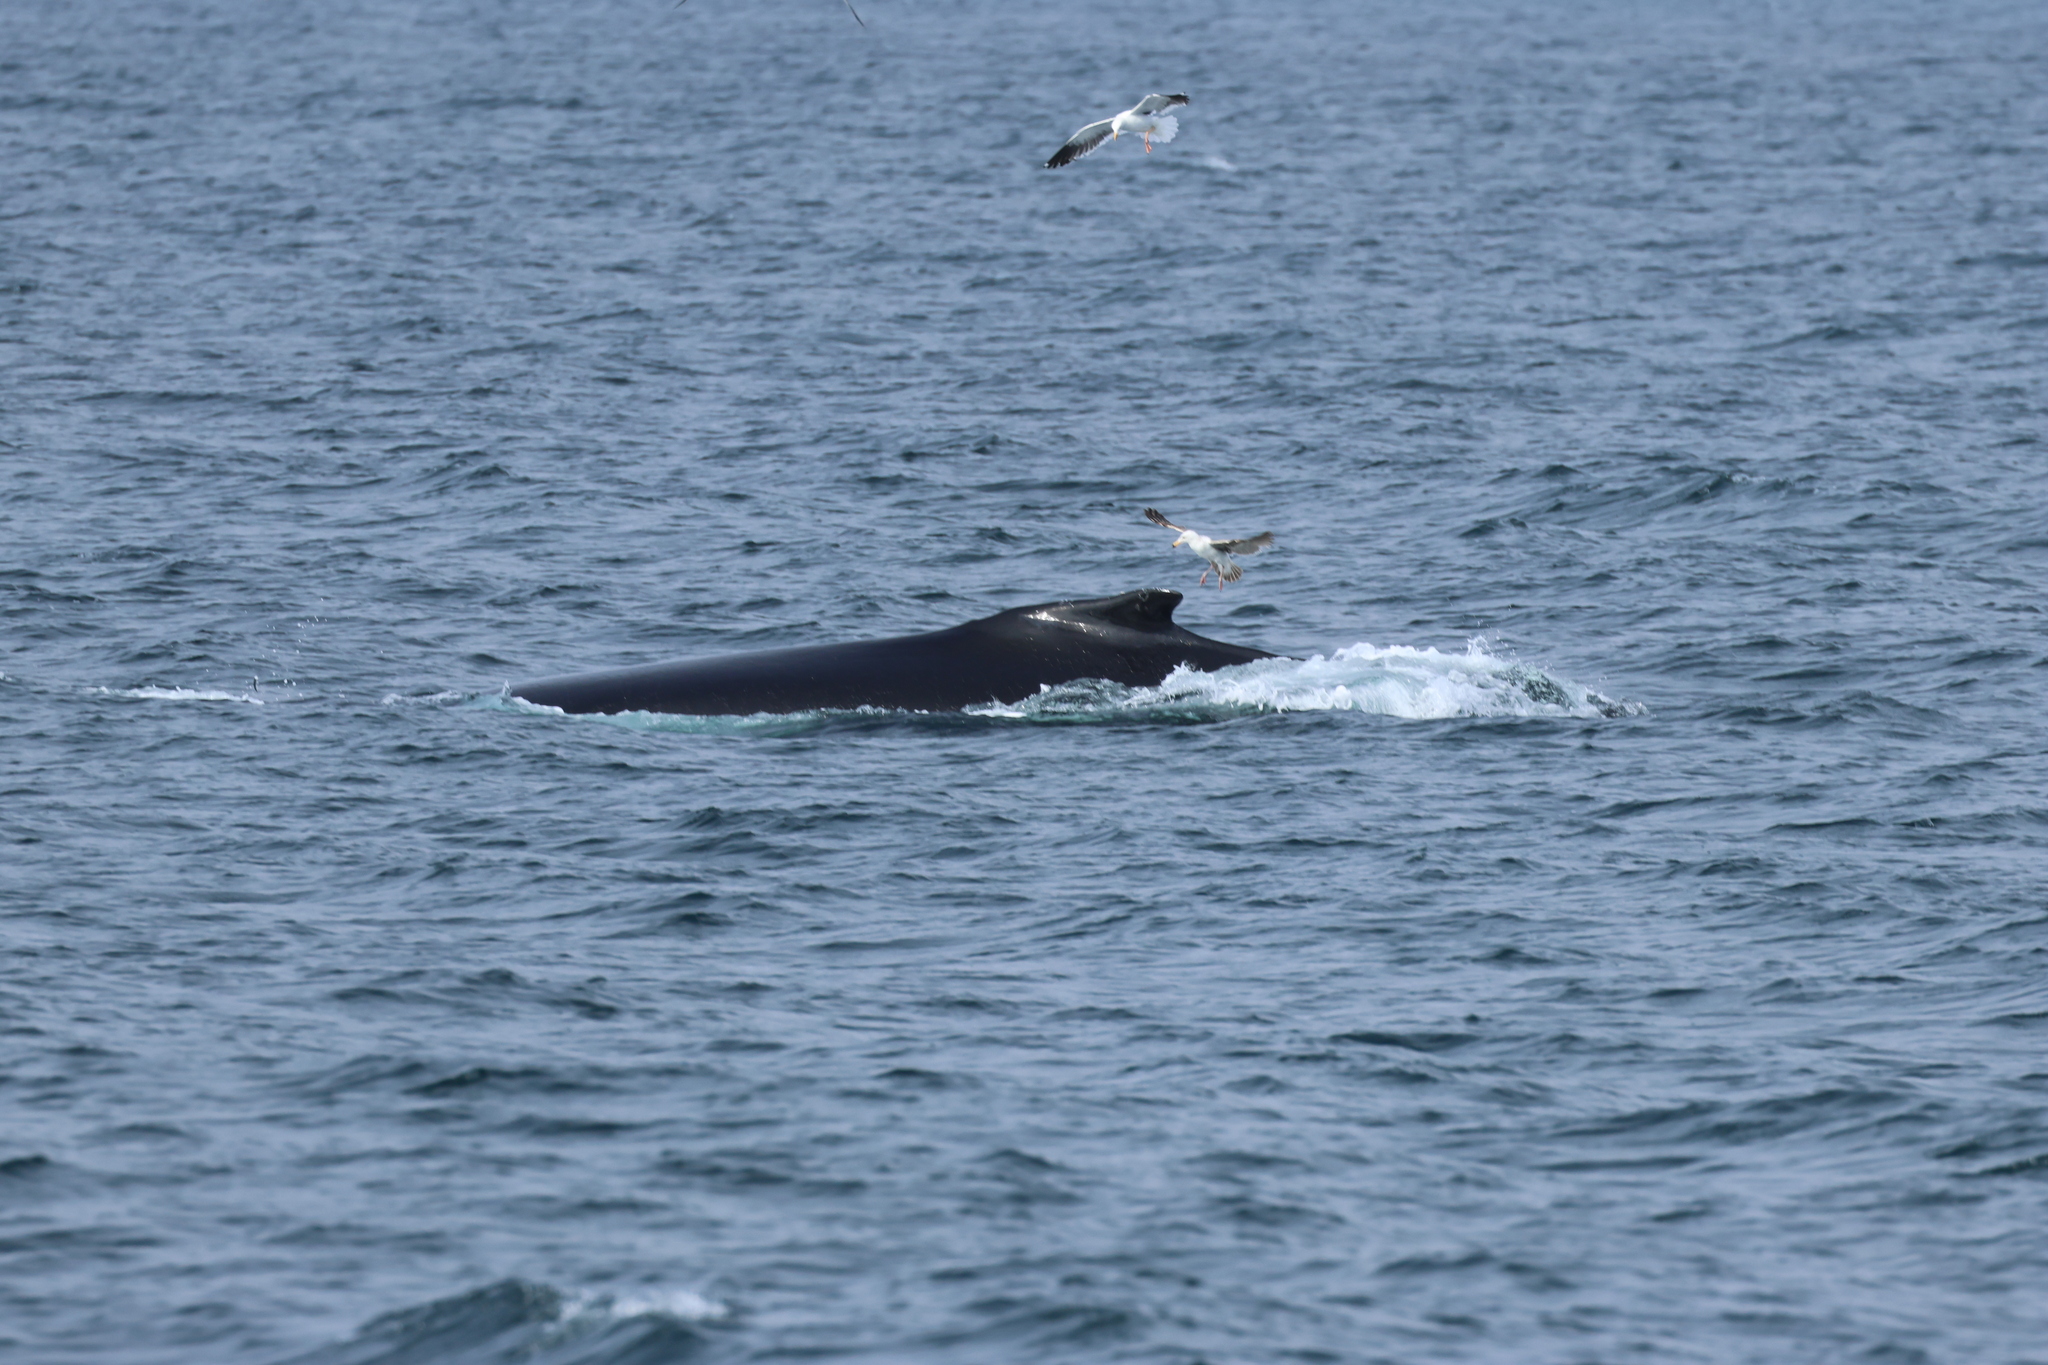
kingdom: Animalia
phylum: Chordata
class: Mammalia
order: Cetacea
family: Balaenopteridae
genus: Megaptera
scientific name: Megaptera novaeangliae
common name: Humpback whale
